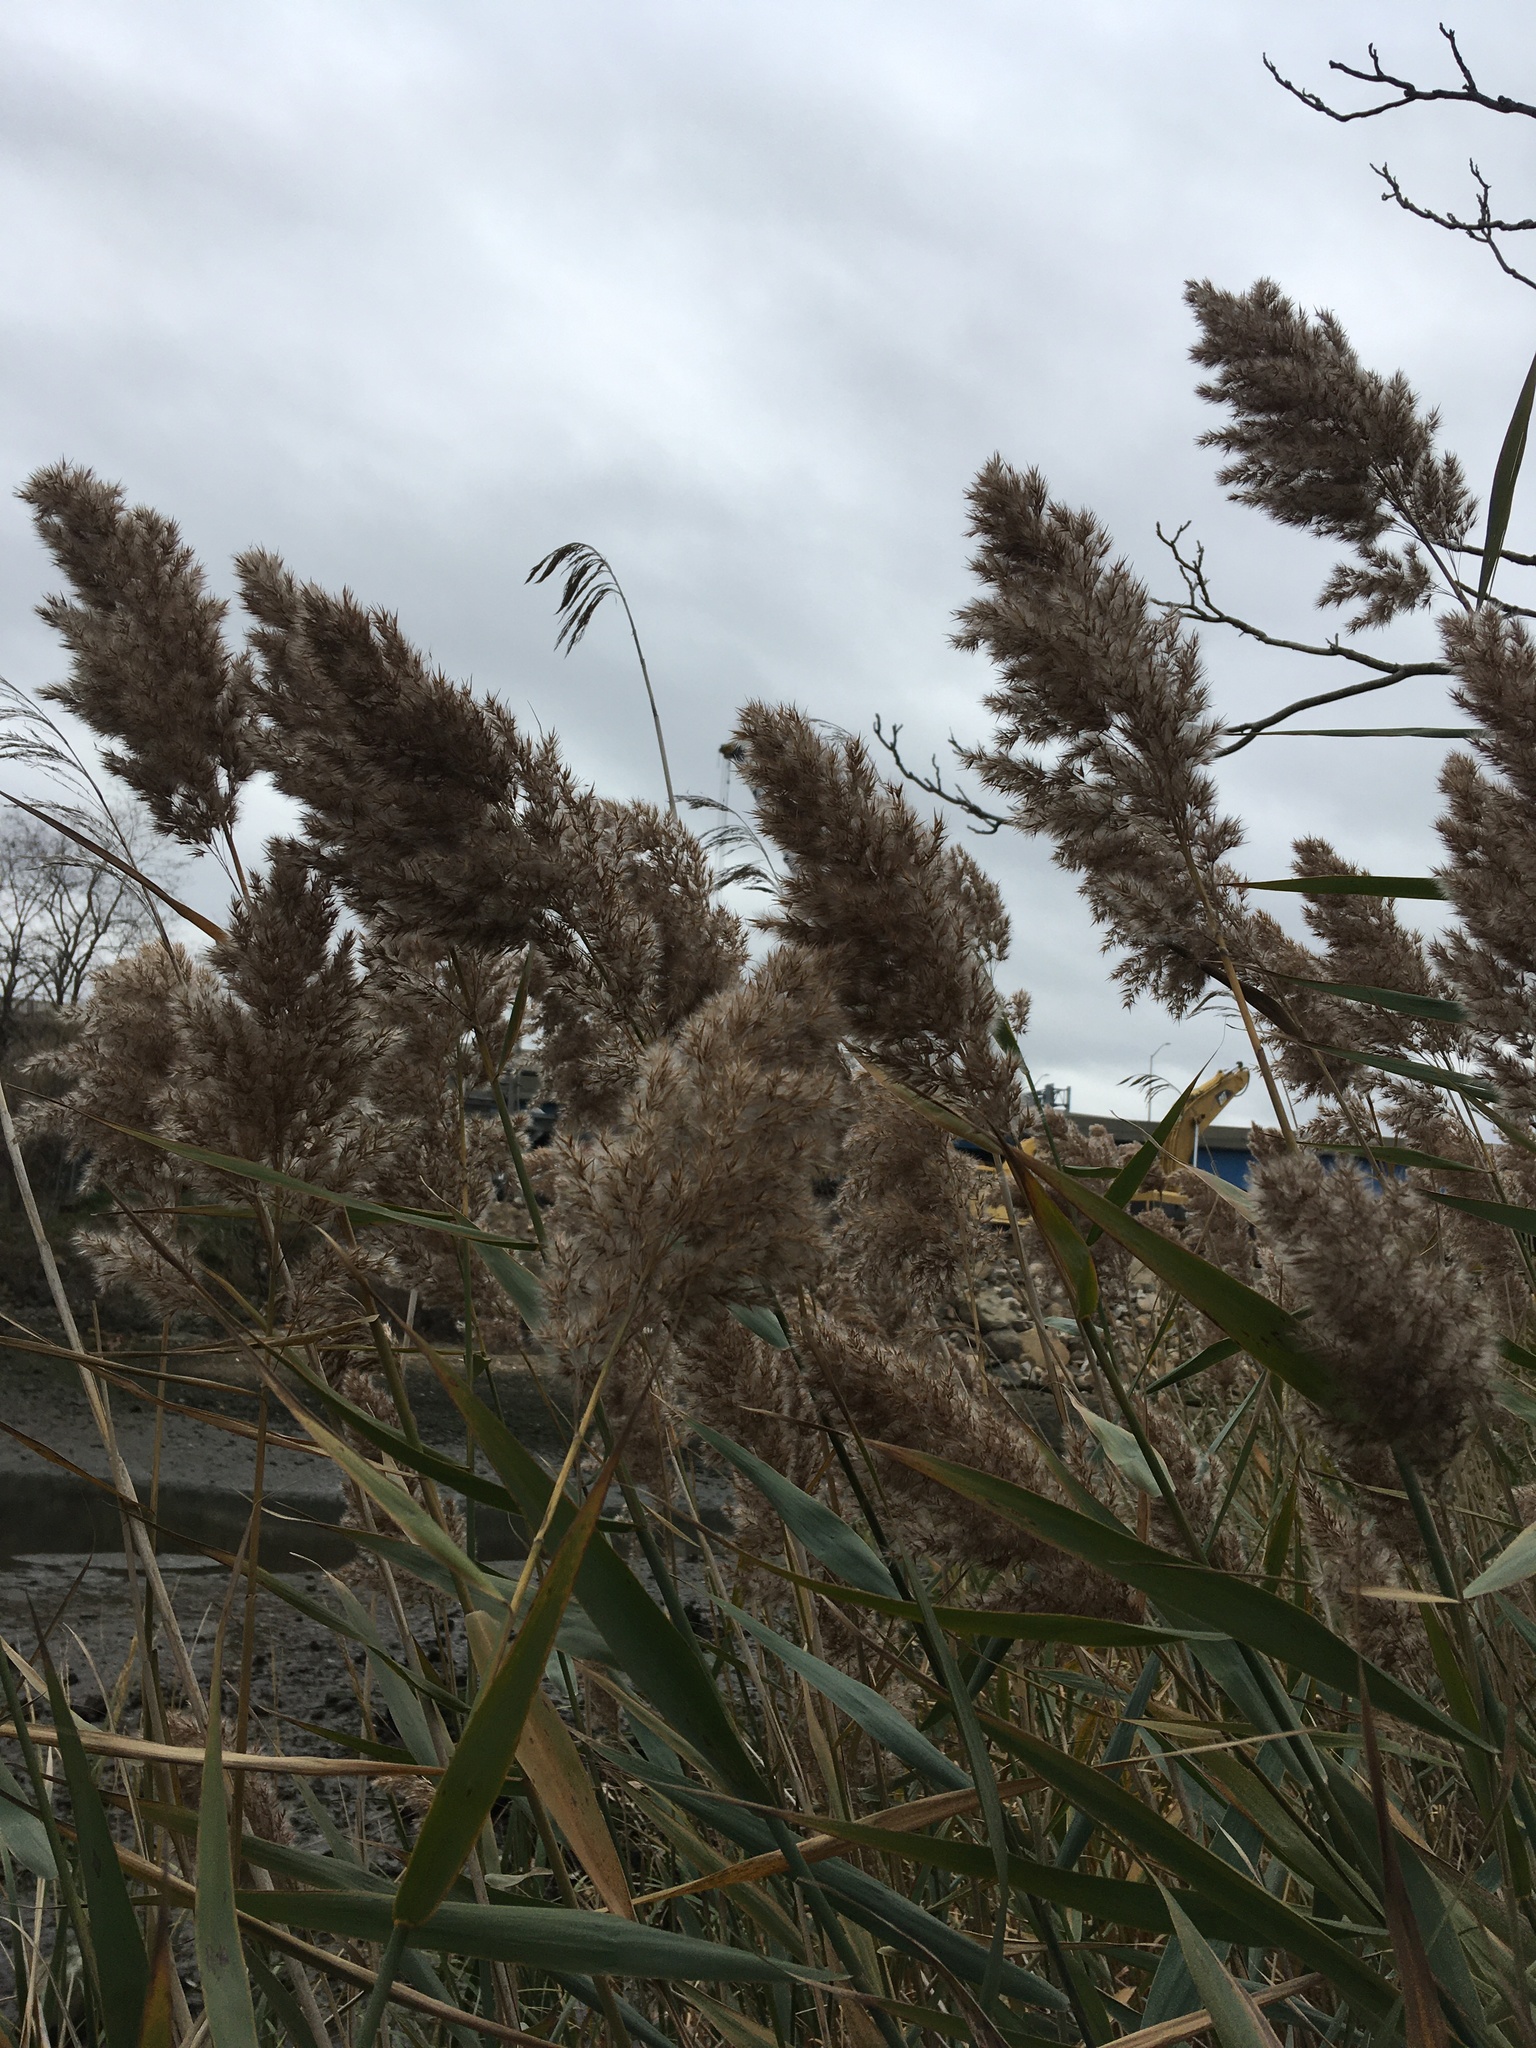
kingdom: Plantae
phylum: Tracheophyta
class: Liliopsida
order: Poales
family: Poaceae
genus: Phragmites
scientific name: Phragmites australis
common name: Common reed
